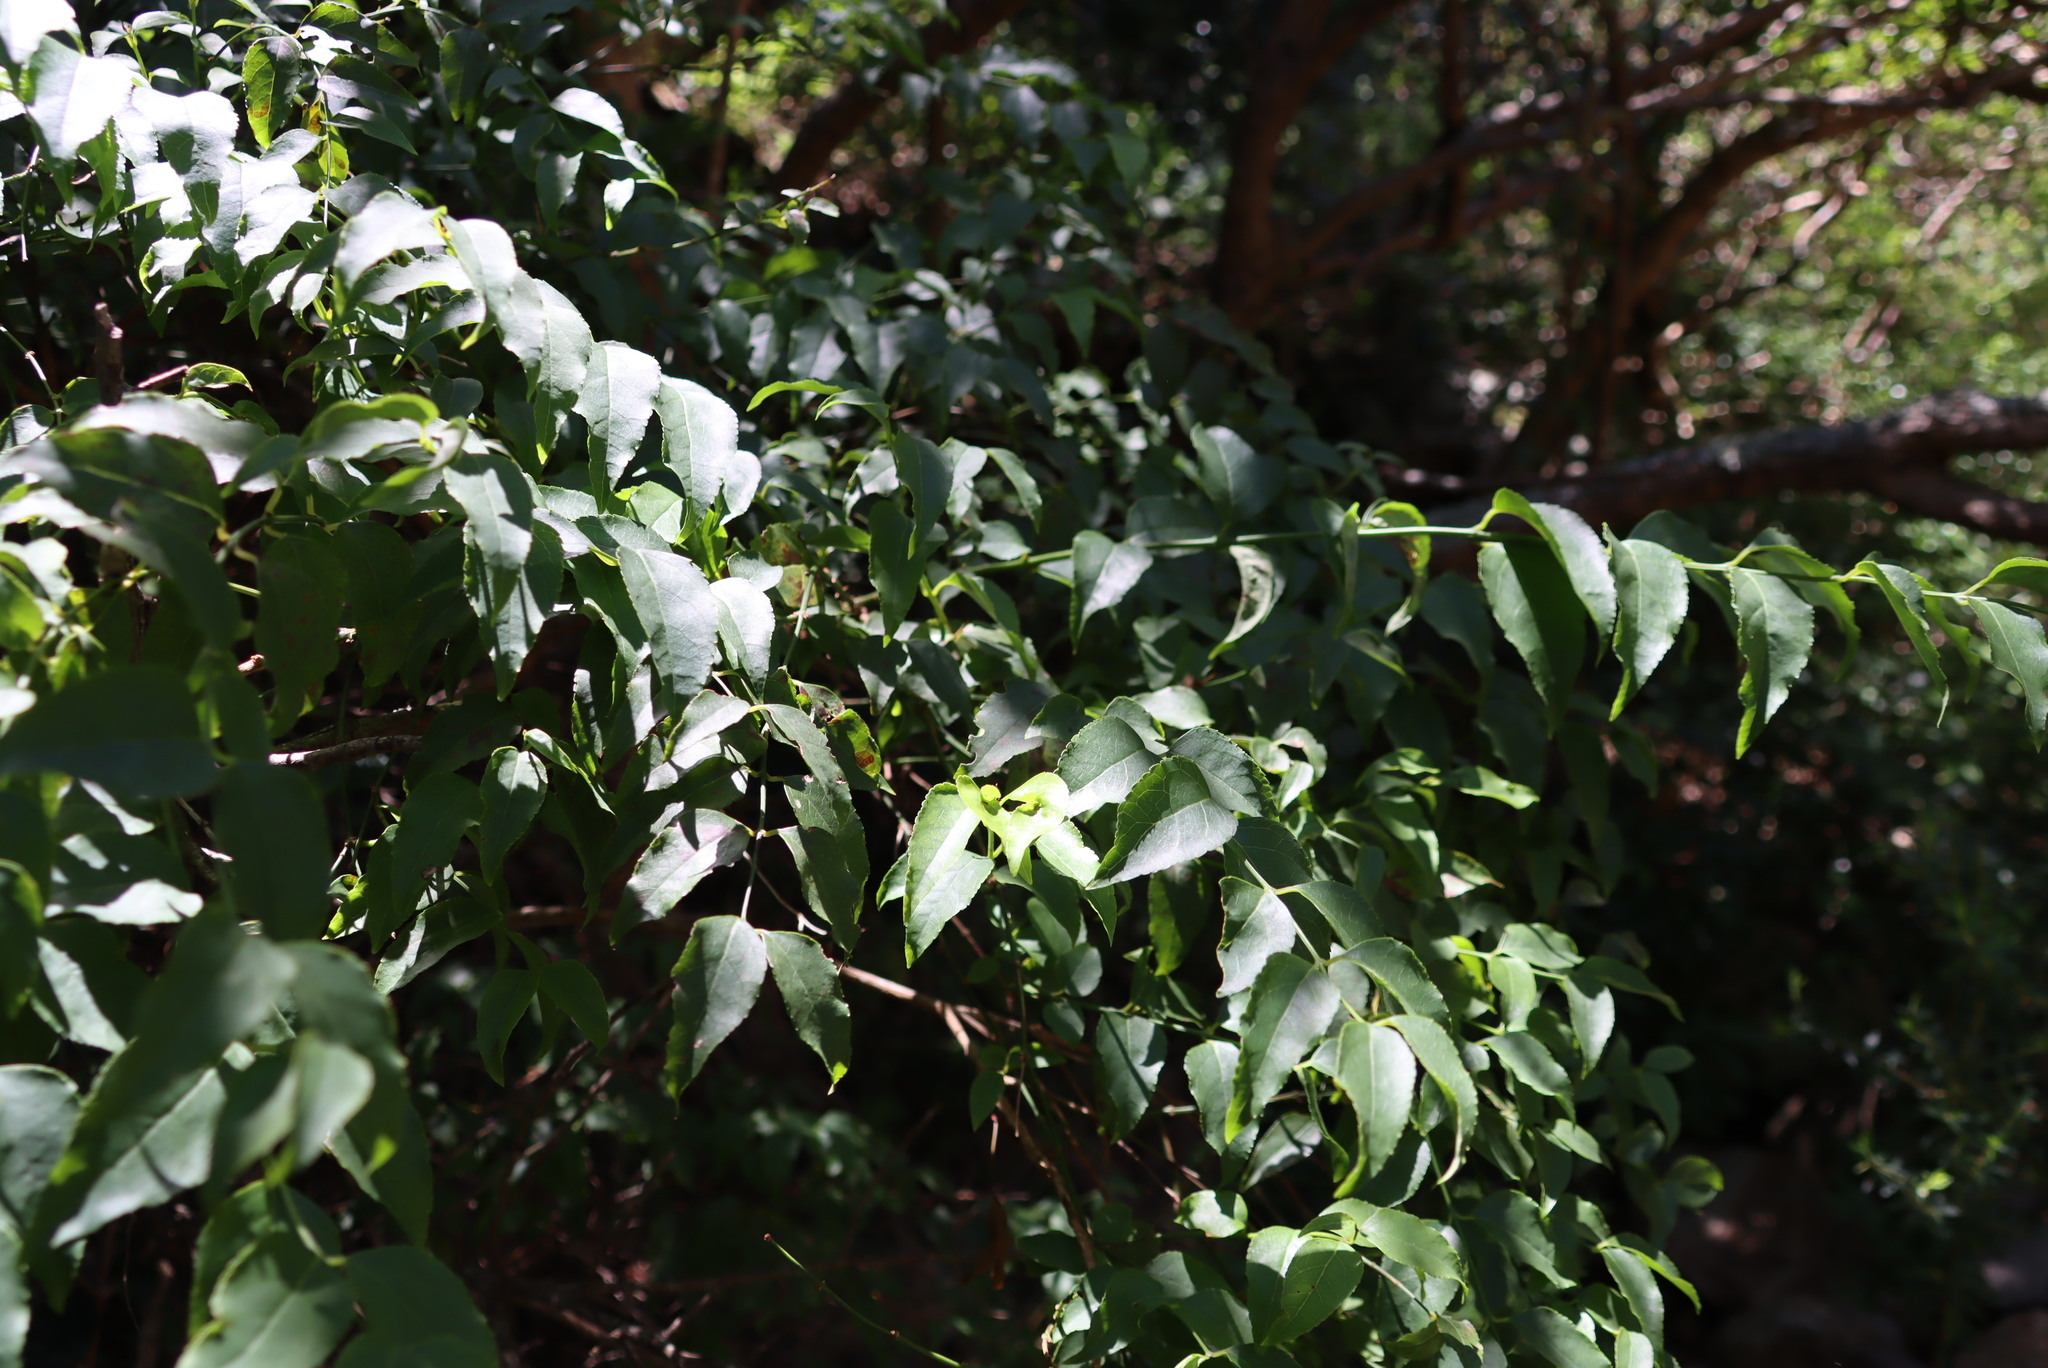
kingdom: Plantae
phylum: Tracheophyta
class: Magnoliopsida
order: Lamiales
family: Stilbaceae
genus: Halleria
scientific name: Halleria lucida
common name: Tree fuschia
